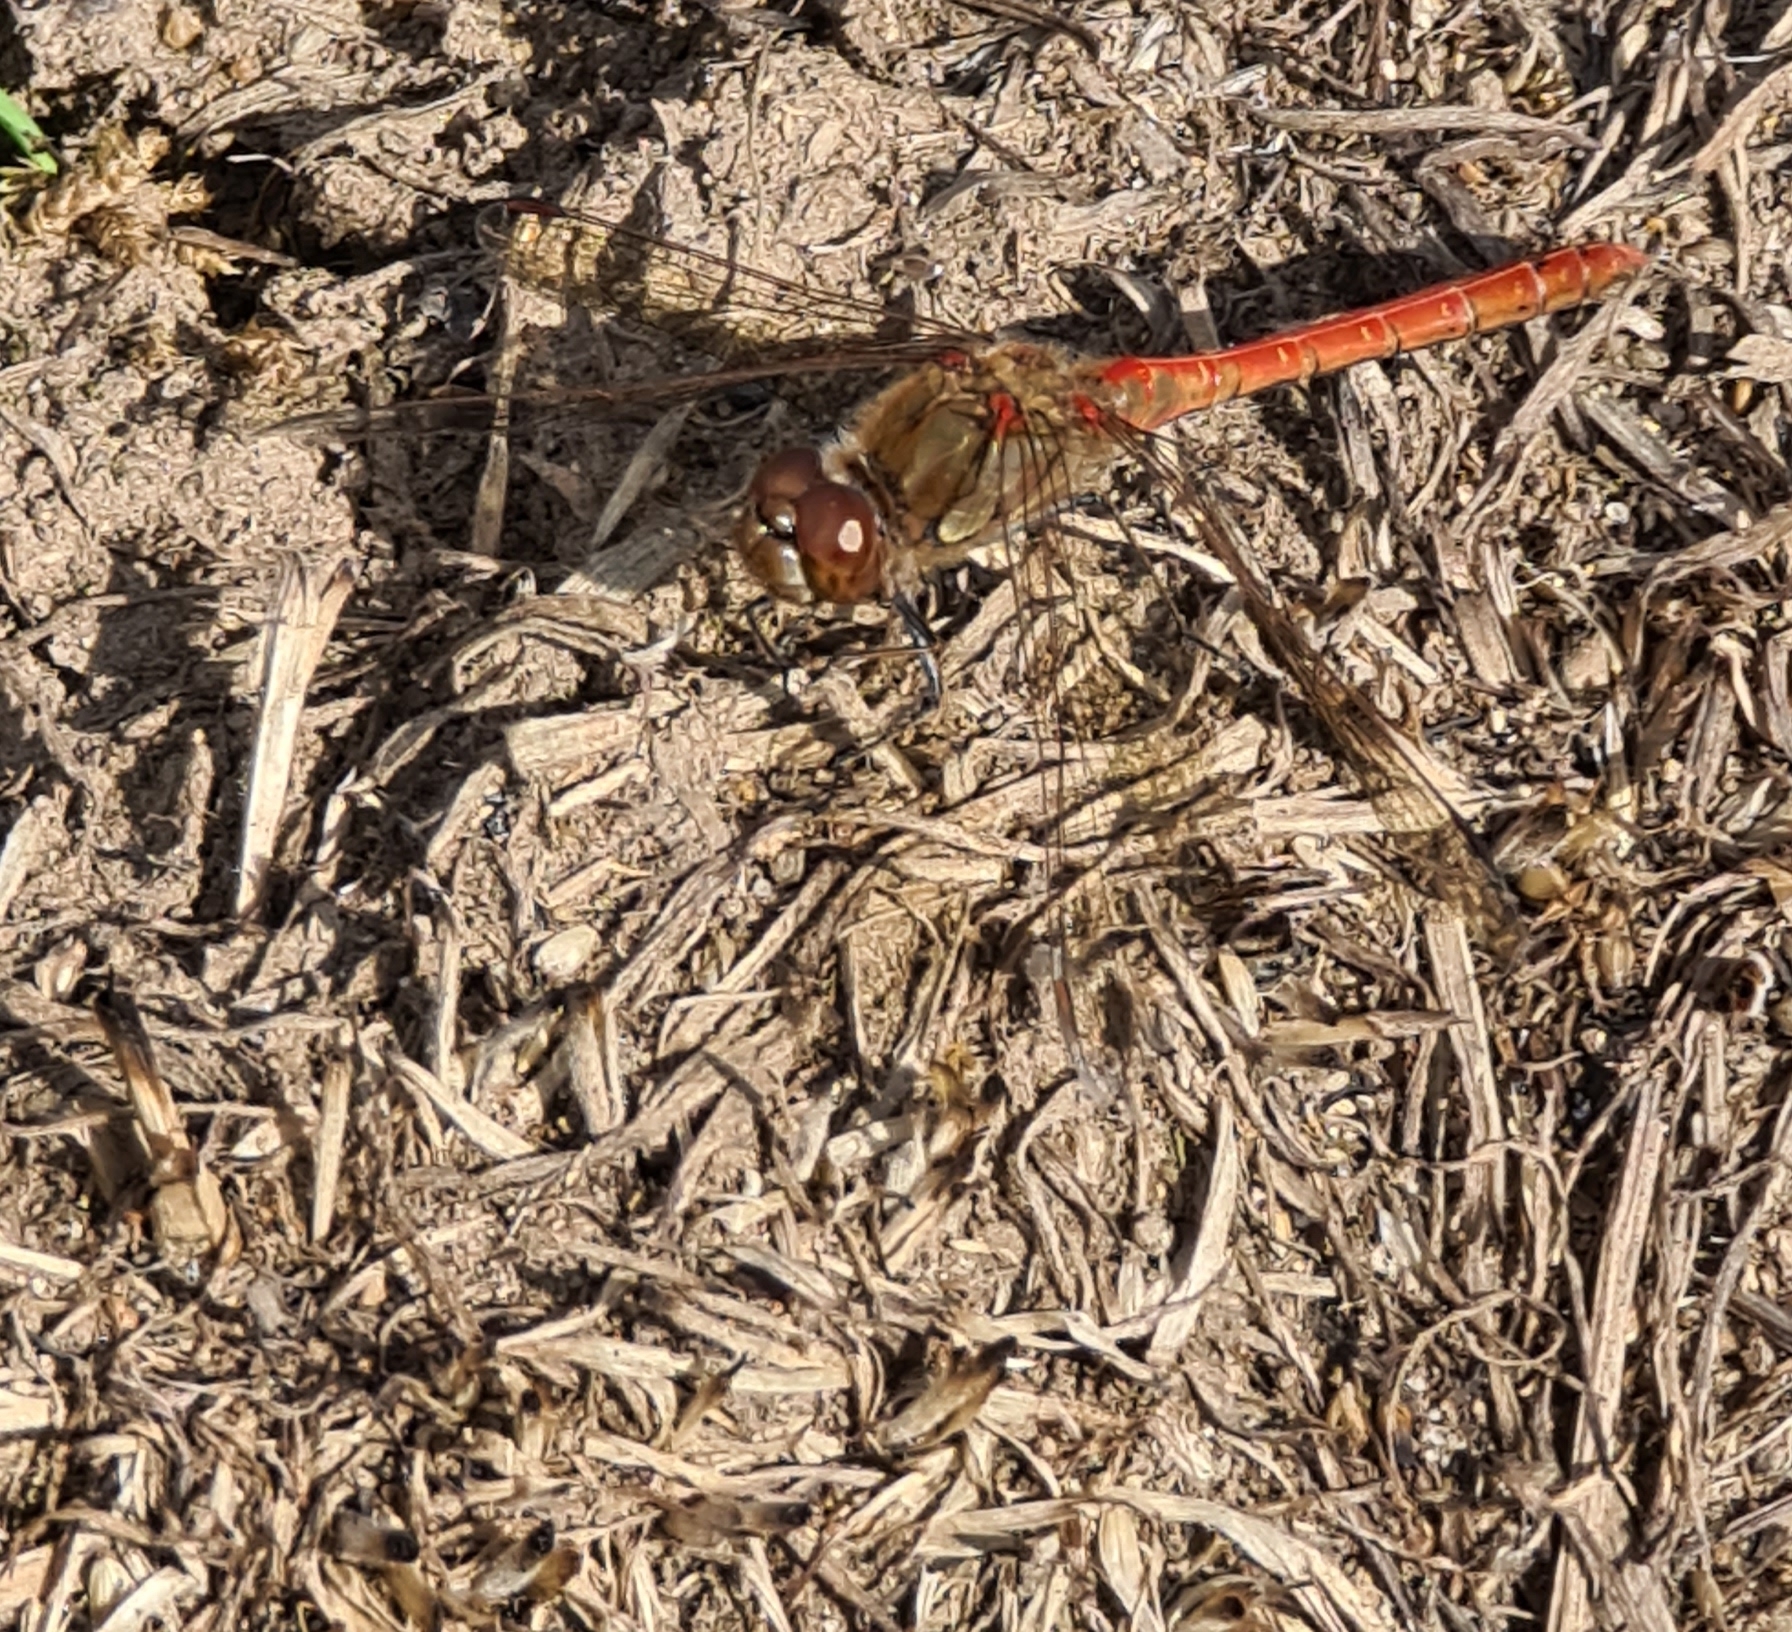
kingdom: Animalia
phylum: Arthropoda
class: Insecta
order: Odonata
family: Libellulidae
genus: Sympetrum
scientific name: Sympetrum striolatum
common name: Common darter
